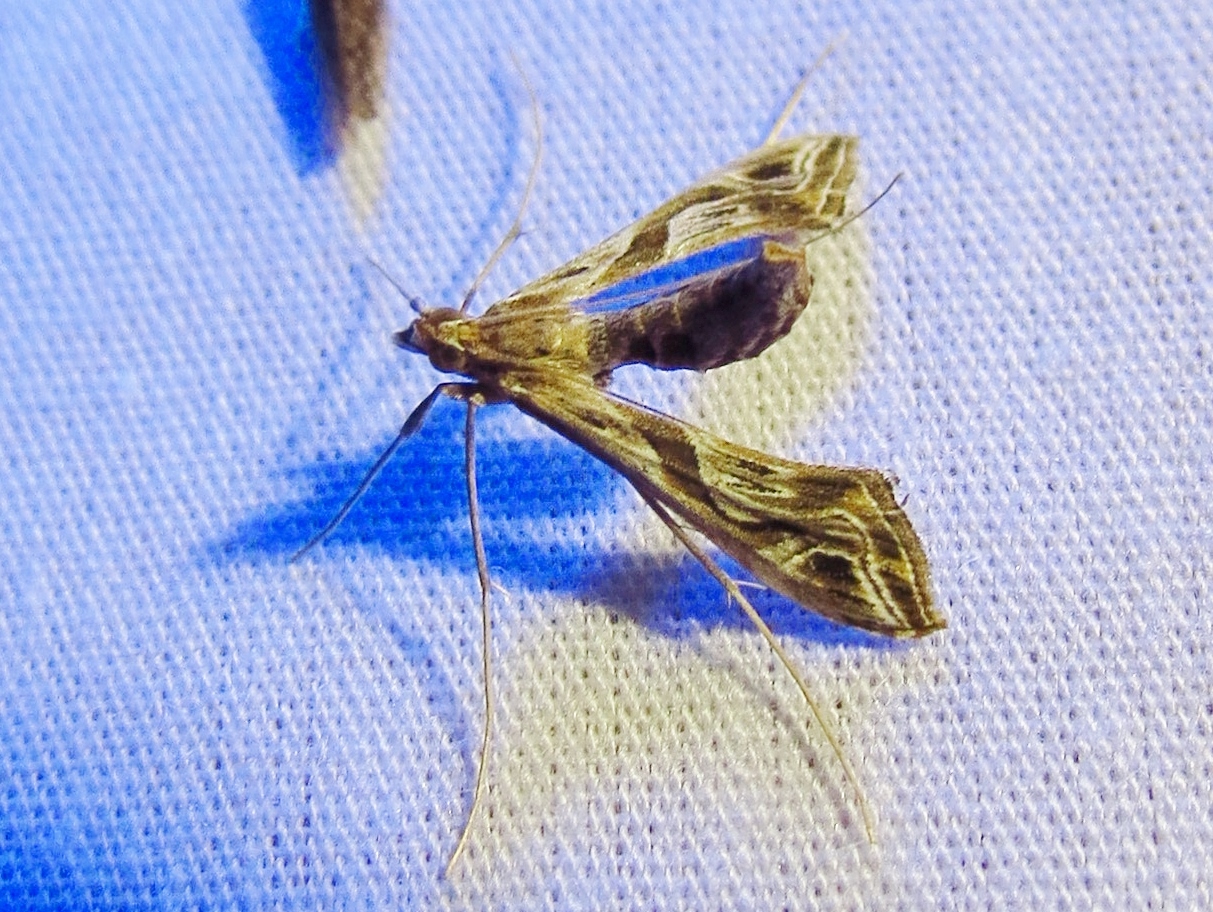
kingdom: Animalia
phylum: Arthropoda
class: Insecta
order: Lepidoptera
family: Crambidae
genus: Lineodes
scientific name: Lineodes integra
